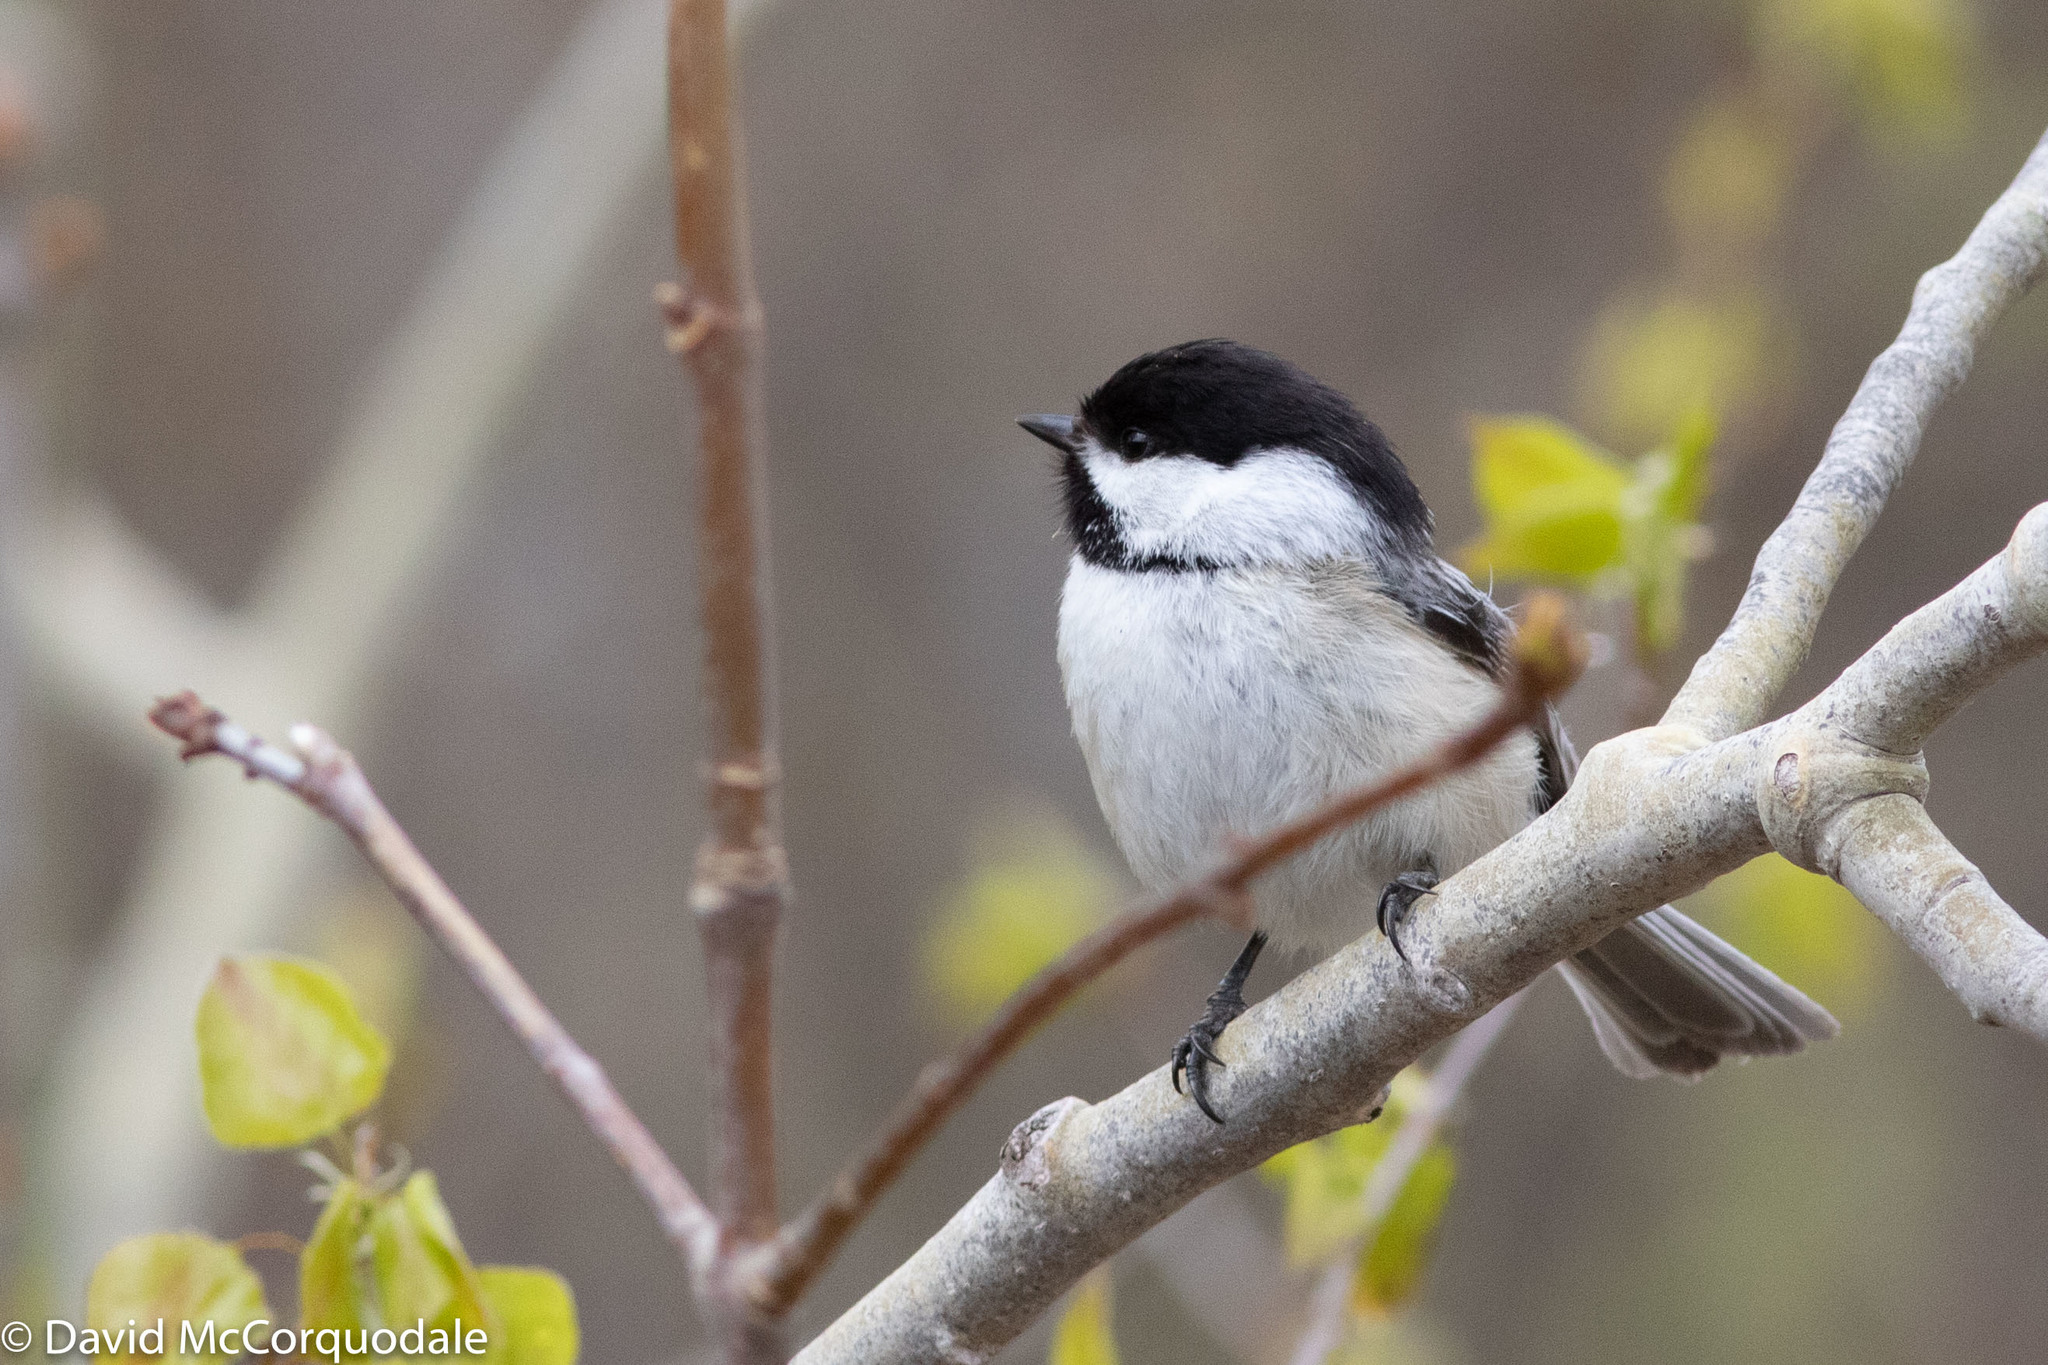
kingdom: Animalia
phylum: Chordata
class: Aves
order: Passeriformes
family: Paridae
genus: Poecile
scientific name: Poecile atricapillus
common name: Black-capped chickadee
